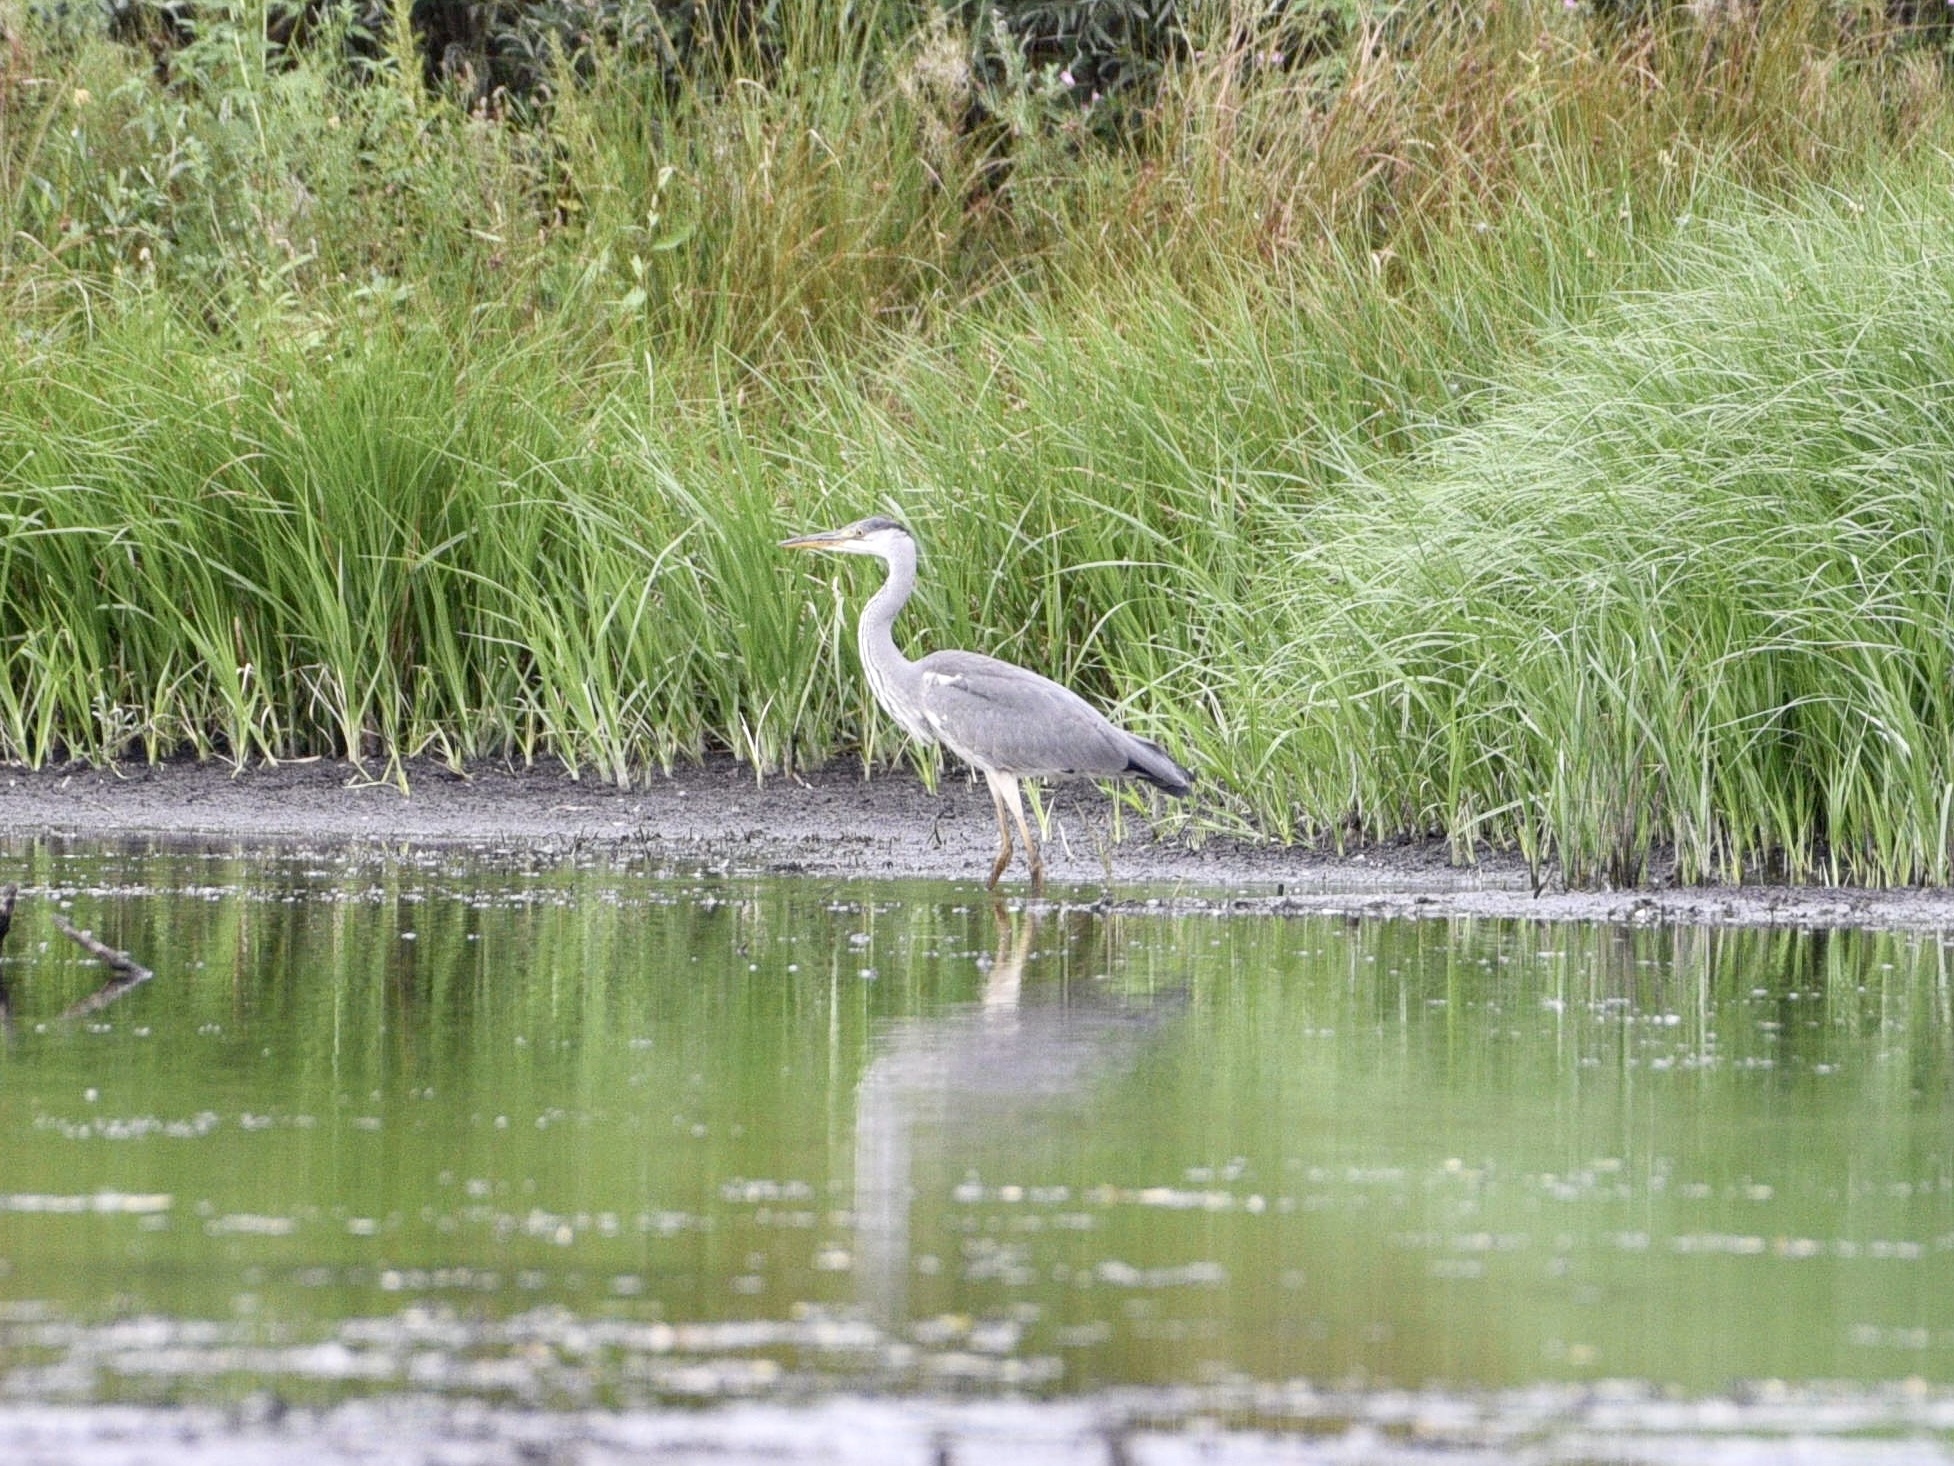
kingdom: Animalia
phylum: Chordata
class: Aves
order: Pelecaniformes
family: Ardeidae
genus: Ardea
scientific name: Ardea cinerea
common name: Grey heron
